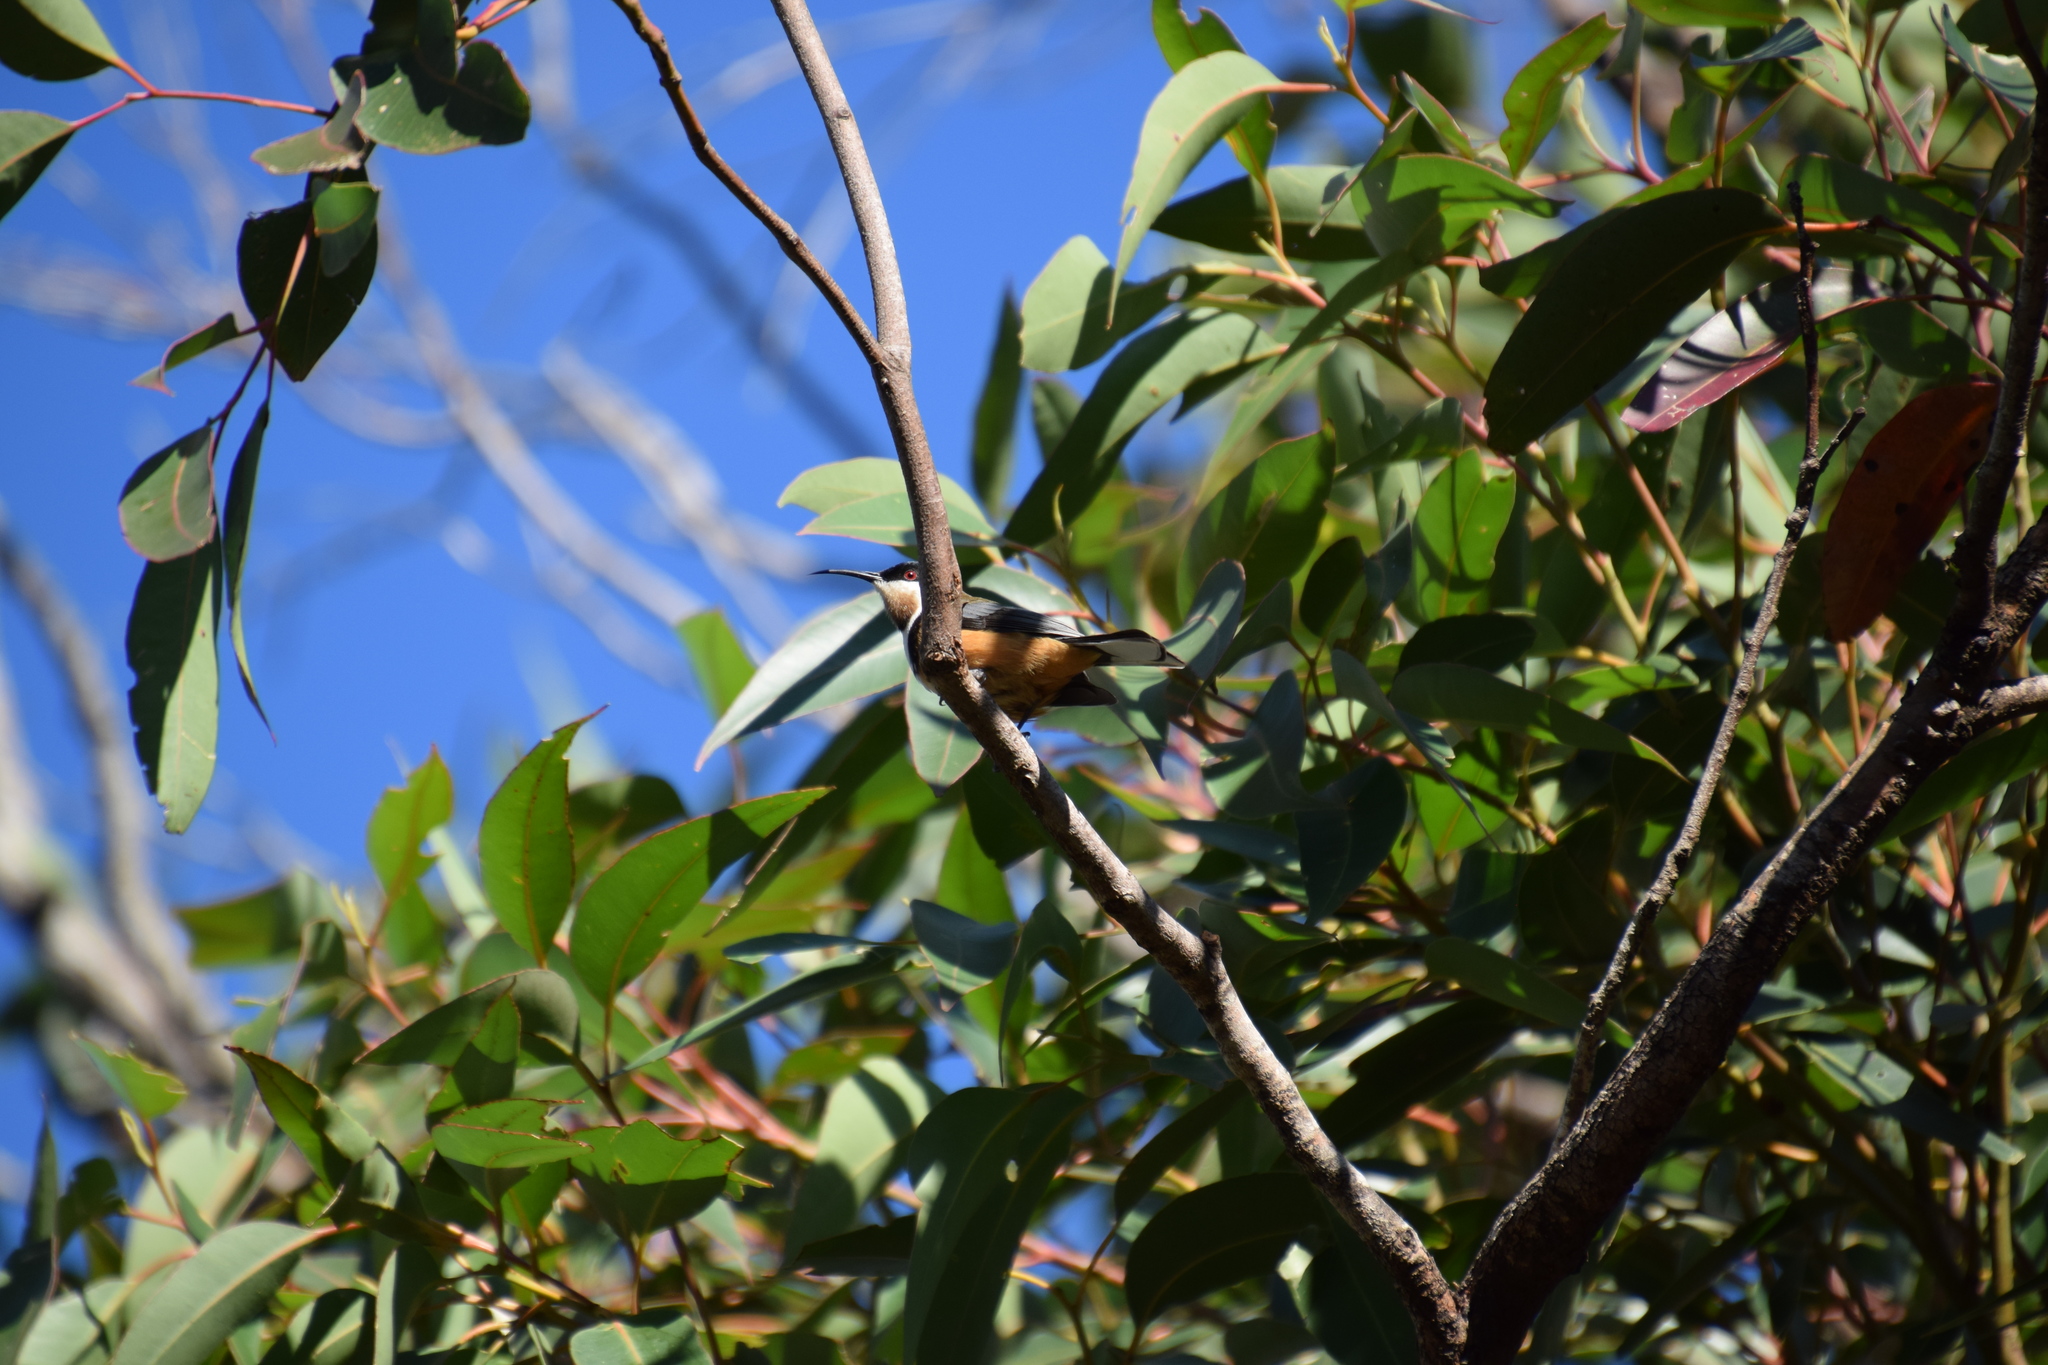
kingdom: Animalia
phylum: Chordata
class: Aves
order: Passeriformes
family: Meliphagidae
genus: Acanthorhynchus
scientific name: Acanthorhynchus tenuirostris
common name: Eastern spinebill
